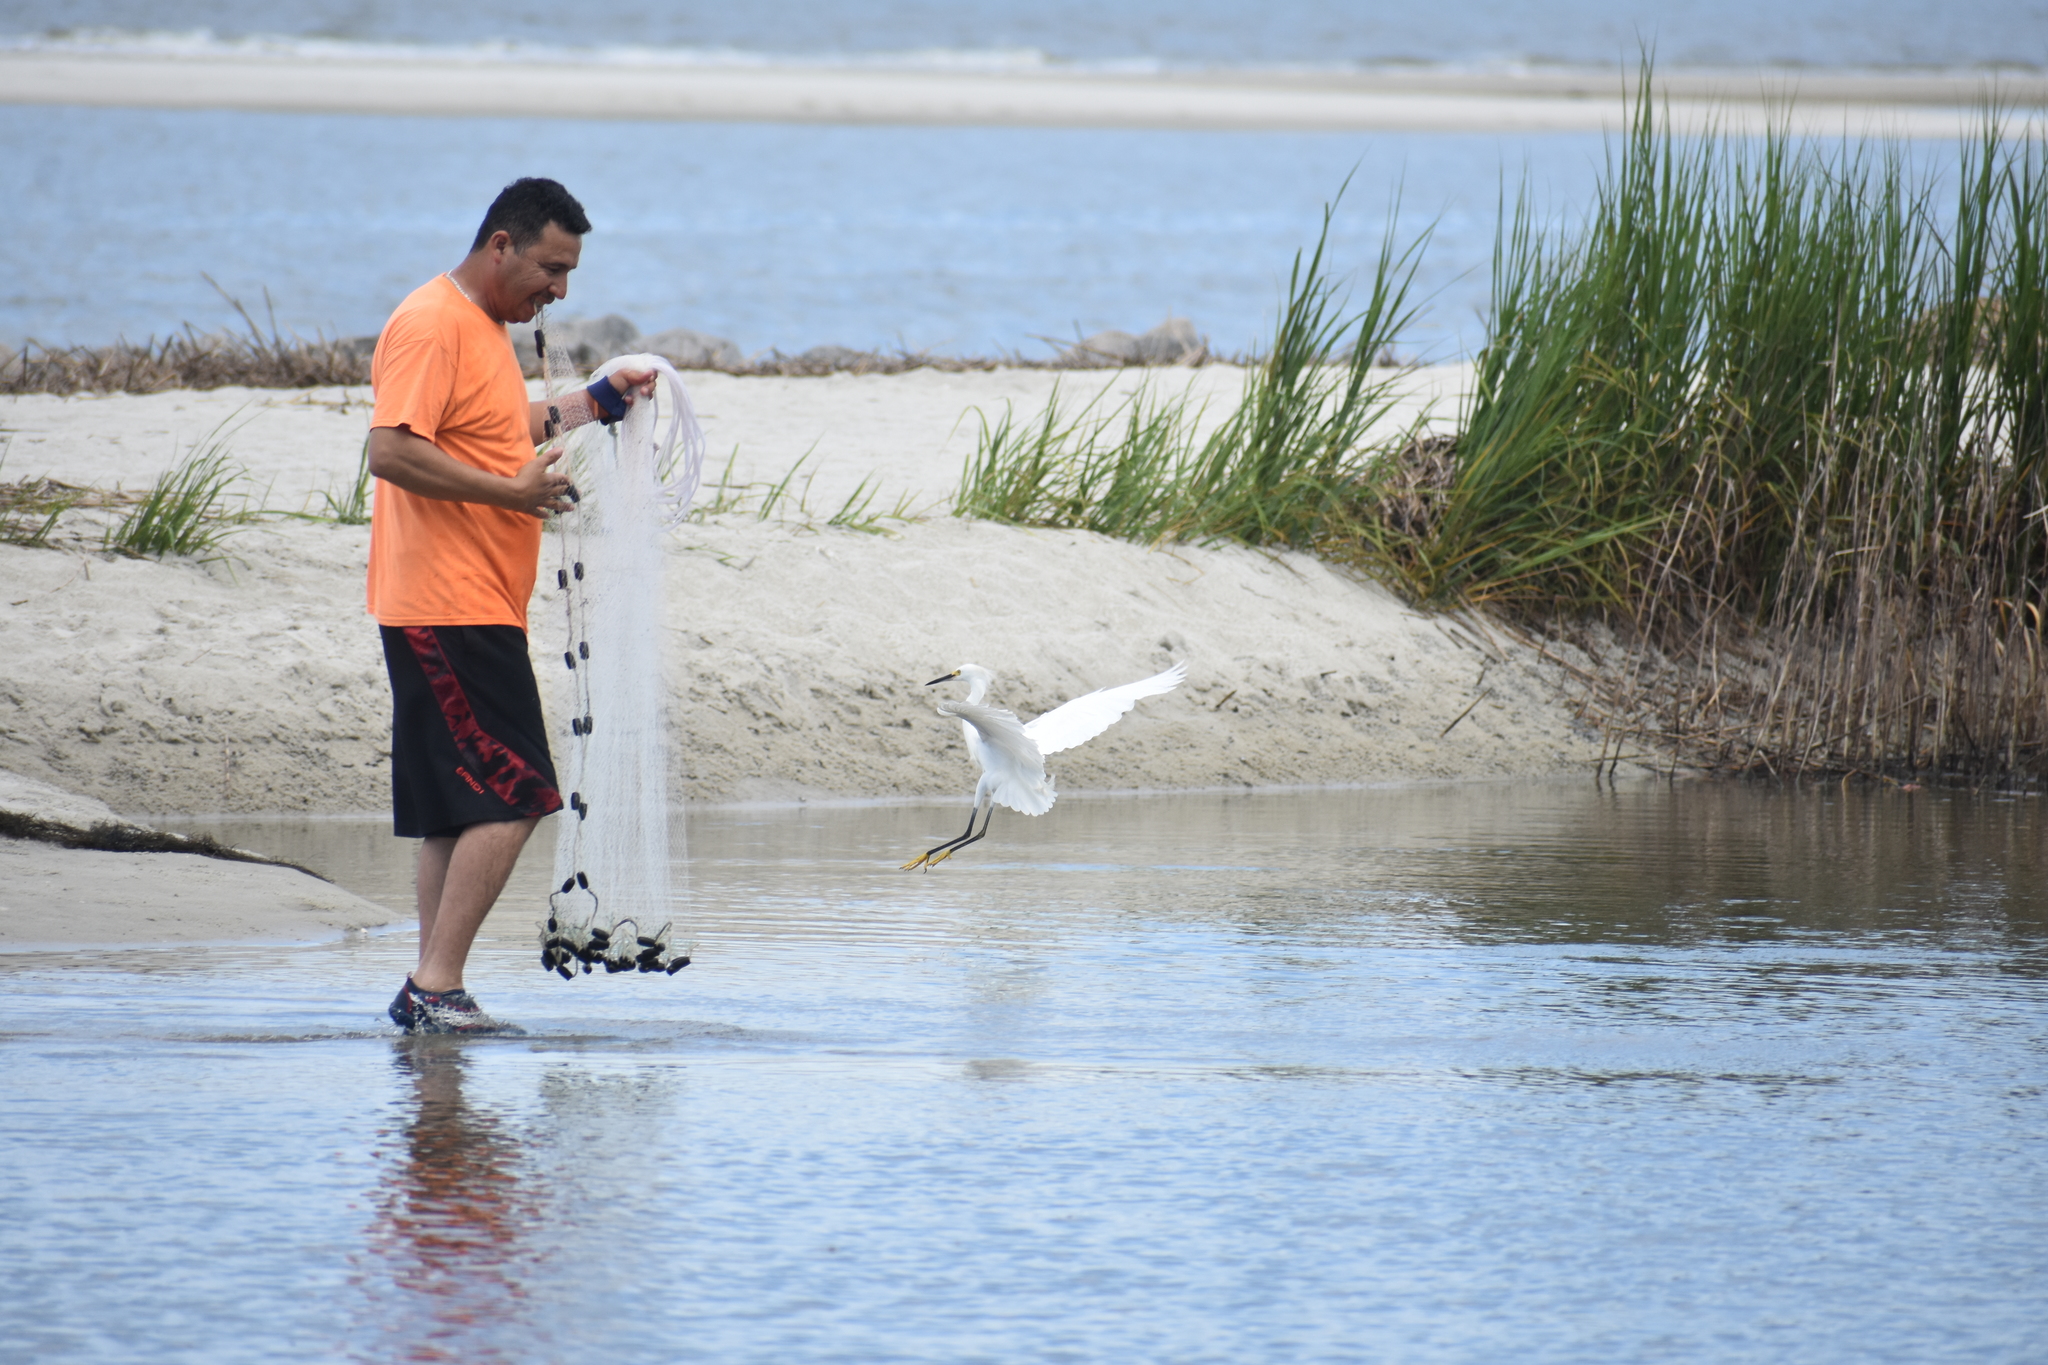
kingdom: Animalia
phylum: Chordata
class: Aves
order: Pelecaniformes
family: Ardeidae
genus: Egretta
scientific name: Egretta thula
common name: Snowy egret
